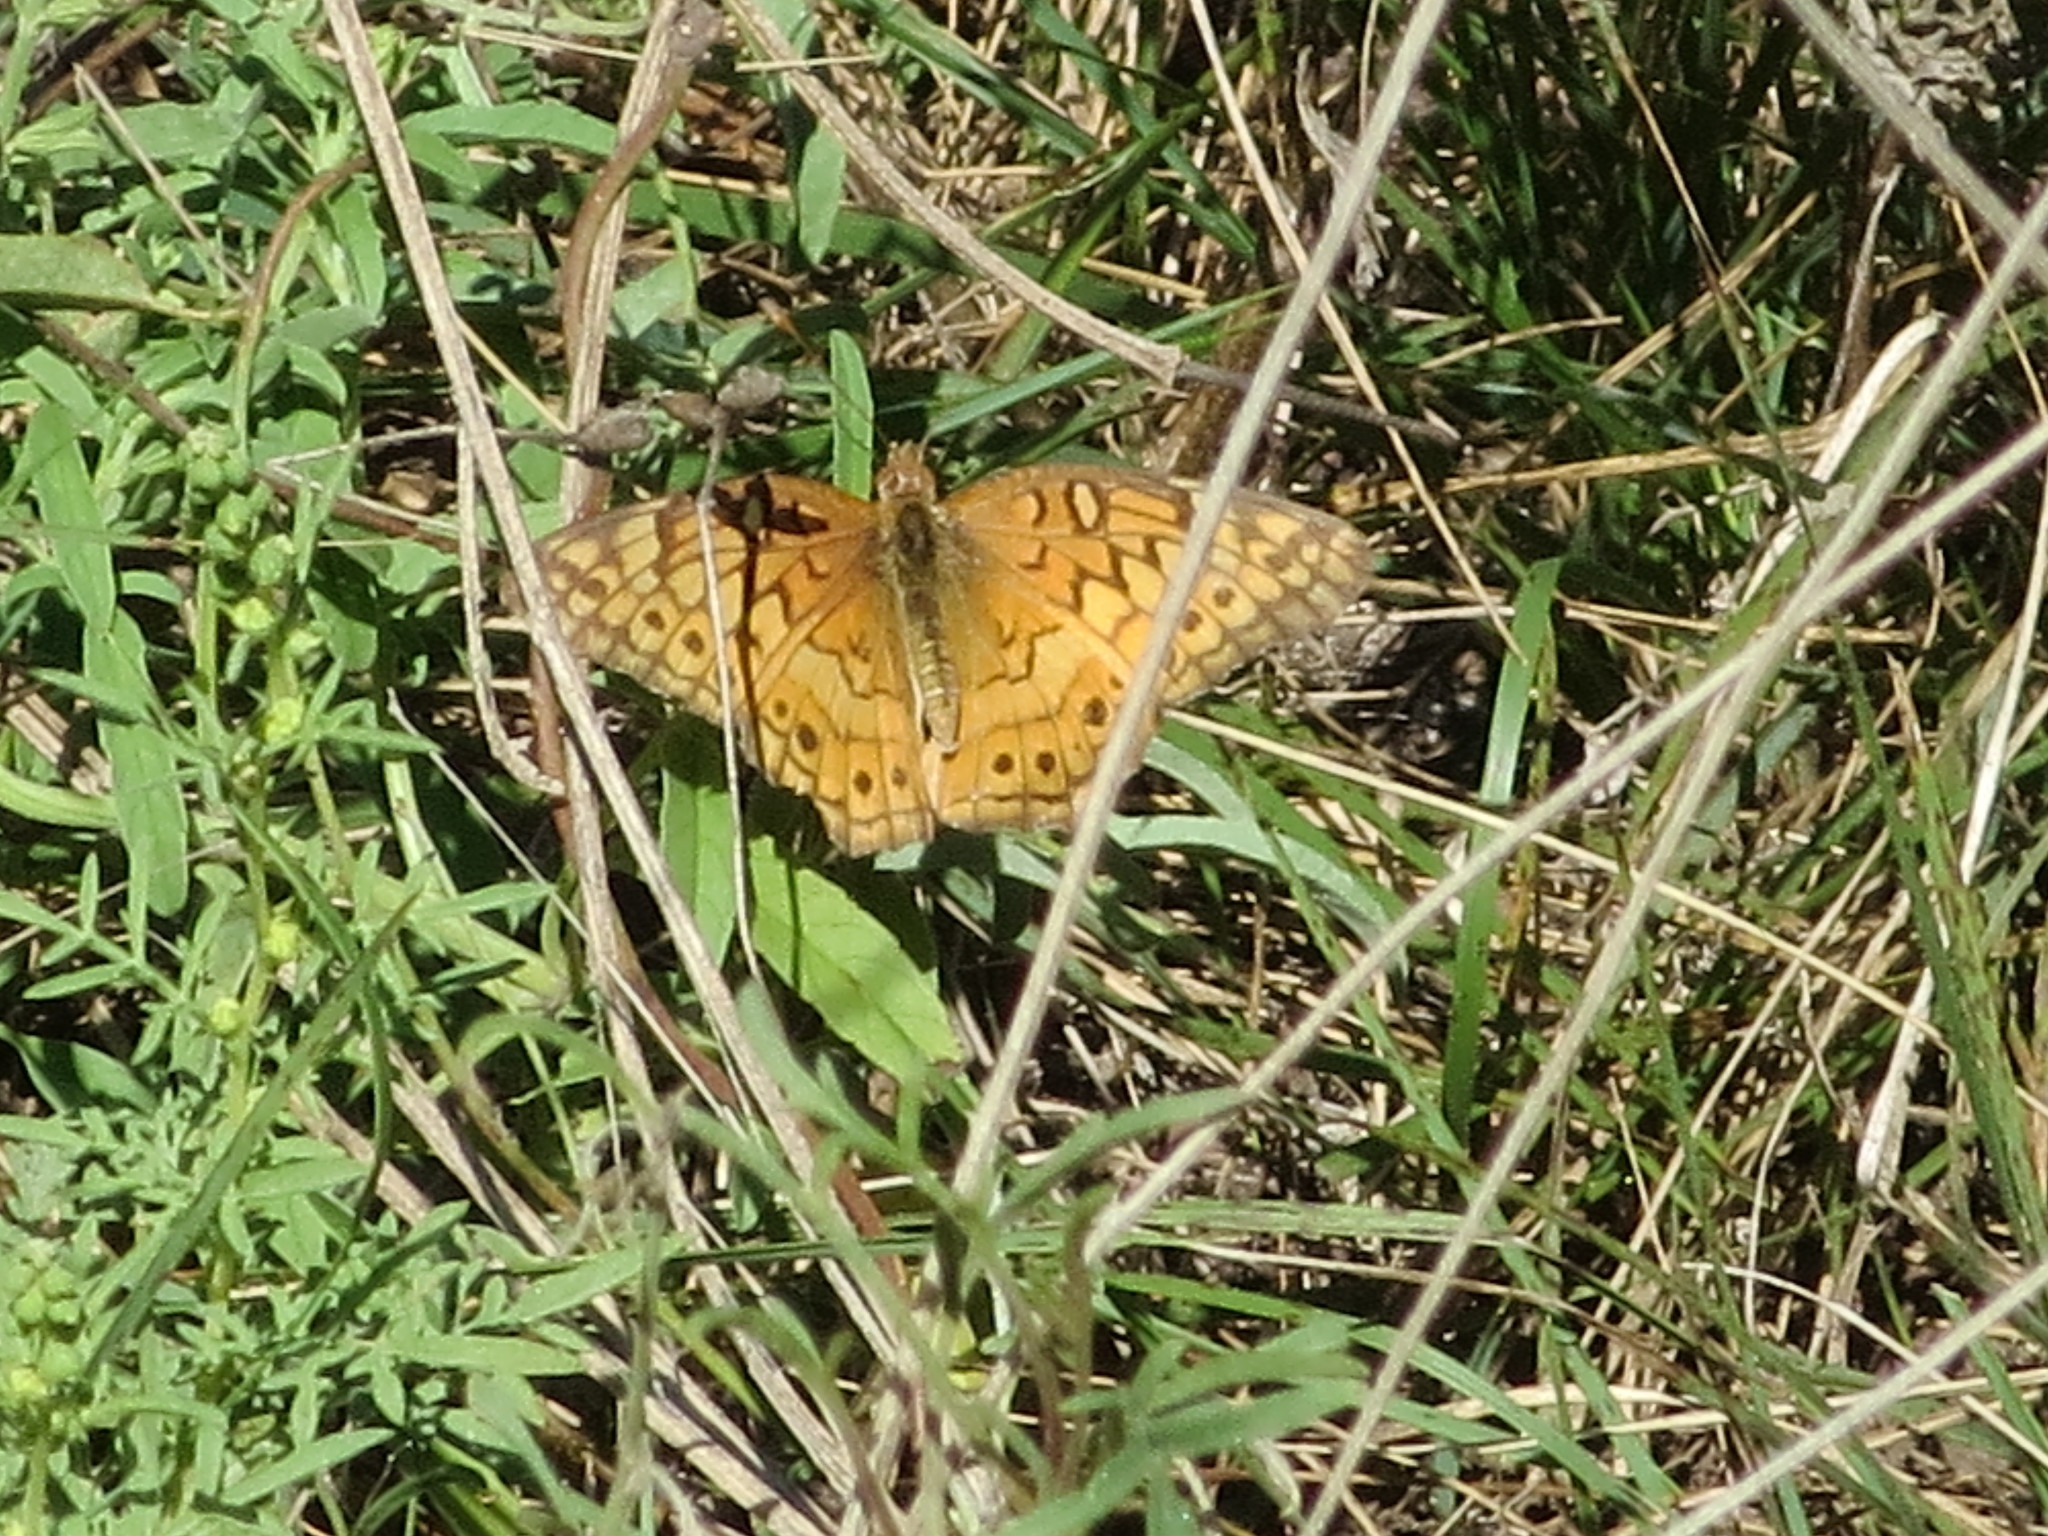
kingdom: Animalia
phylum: Arthropoda
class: Insecta
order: Lepidoptera
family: Nymphalidae
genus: Euptoieta
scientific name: Euptoieta claudia
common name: Variegated fritillary
